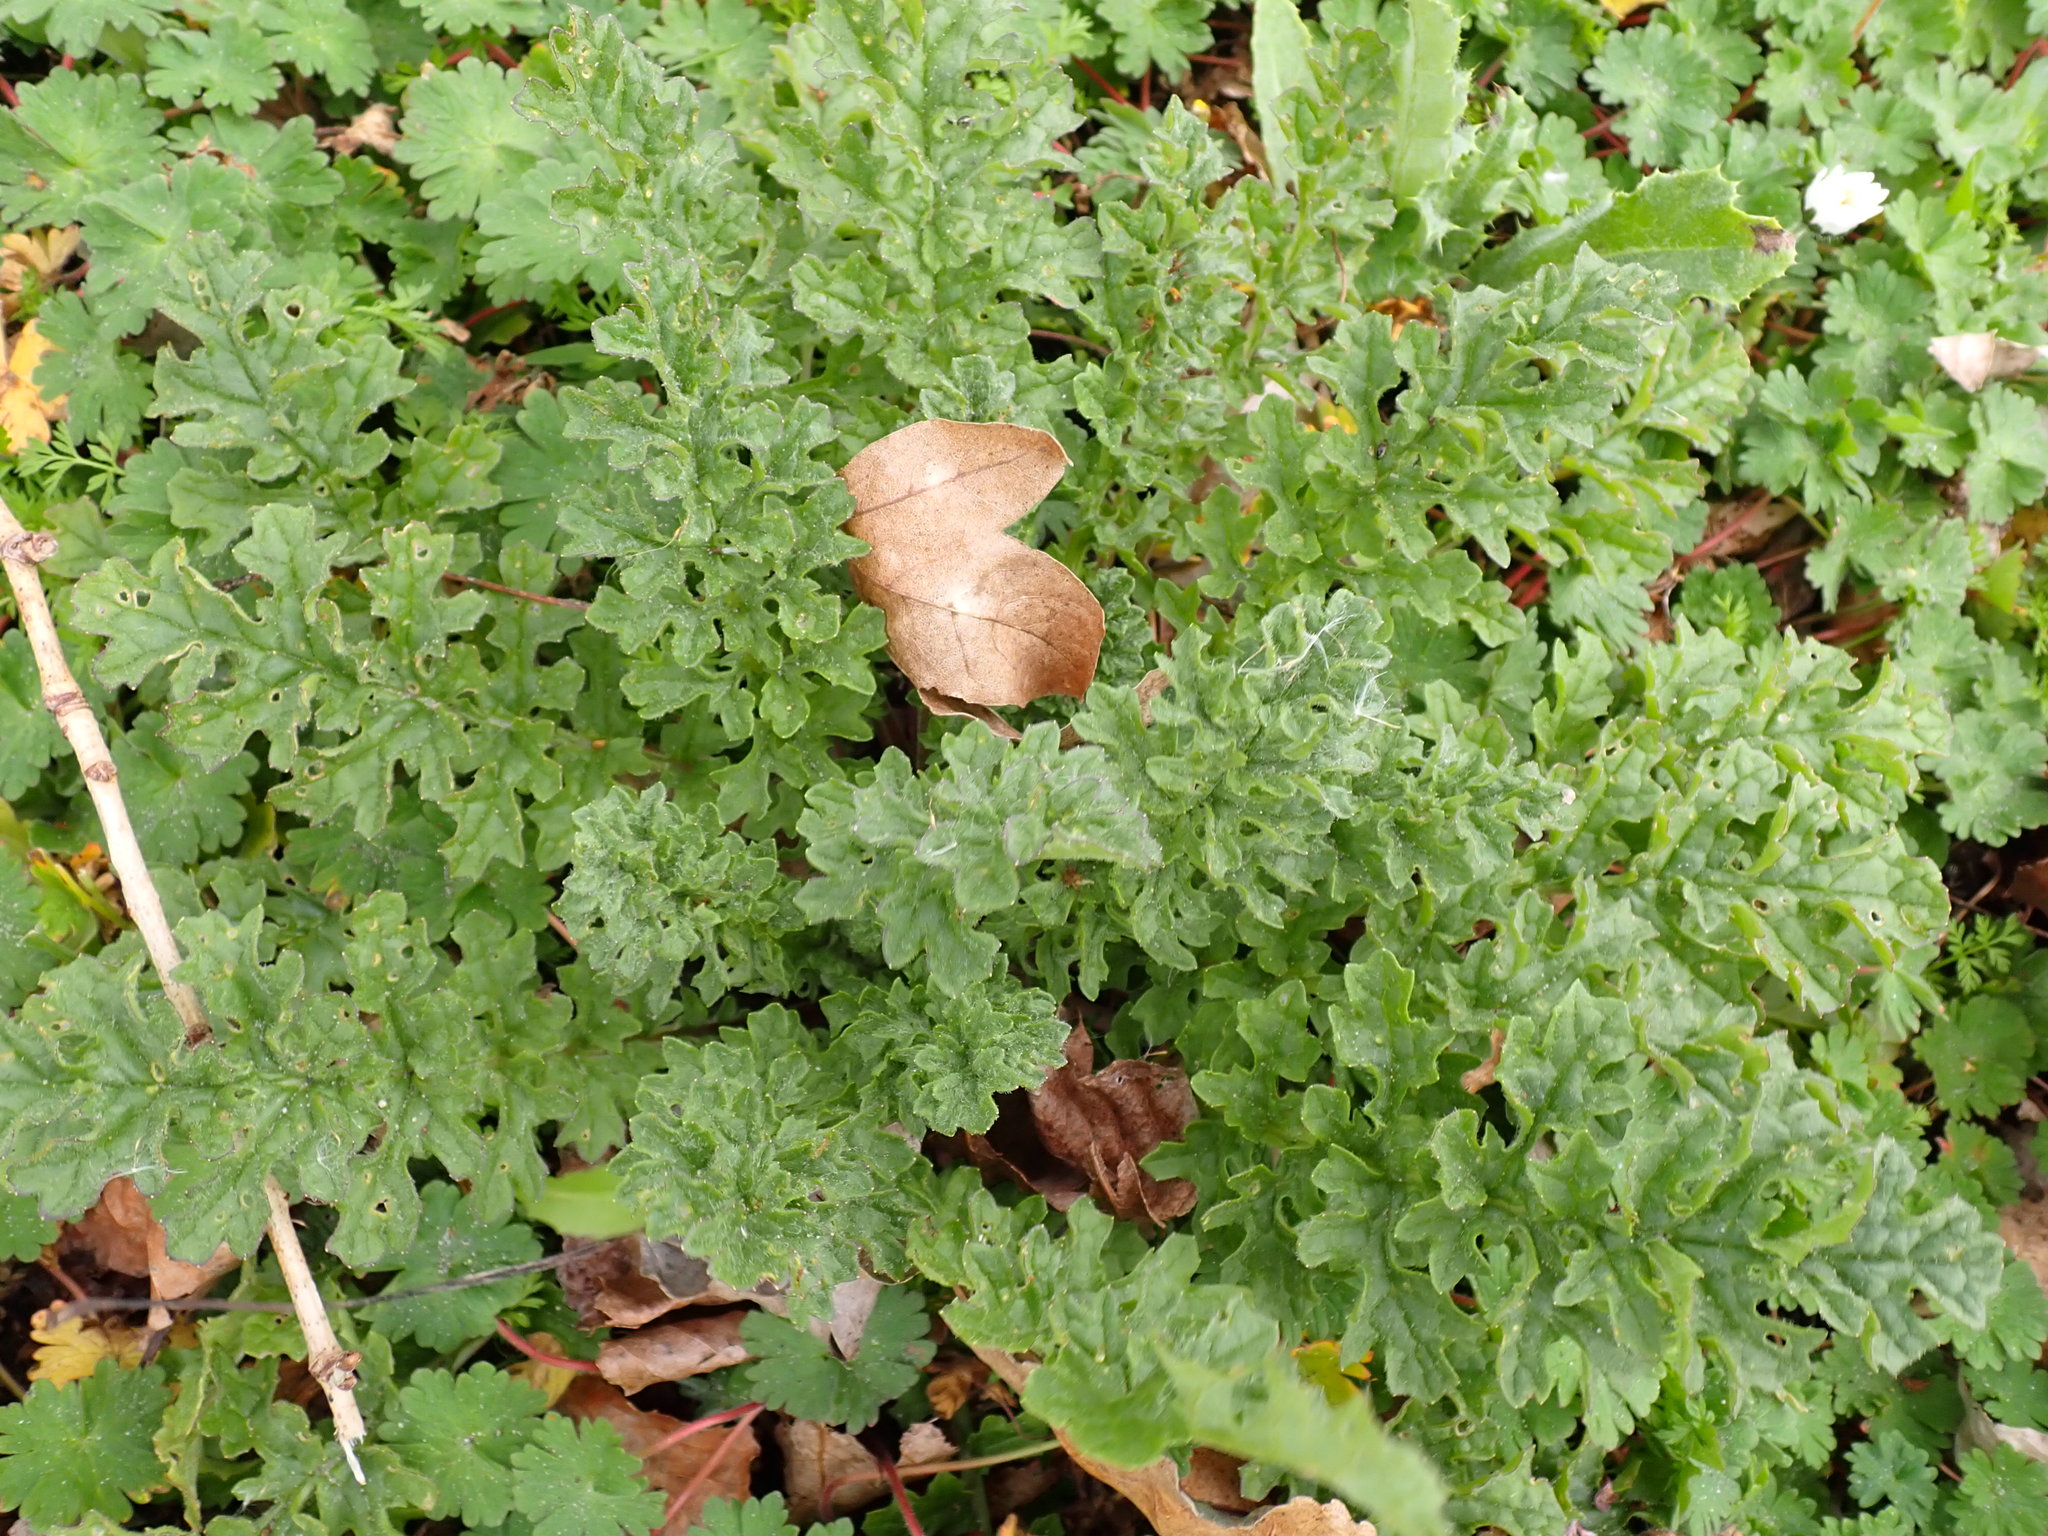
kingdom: Plantae
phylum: Tracheophyta
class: Magnoliopsida
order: Asterales
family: Asteraceae
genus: Jacobaea
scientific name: Jacobaea vulgaris
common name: Stinking willie
